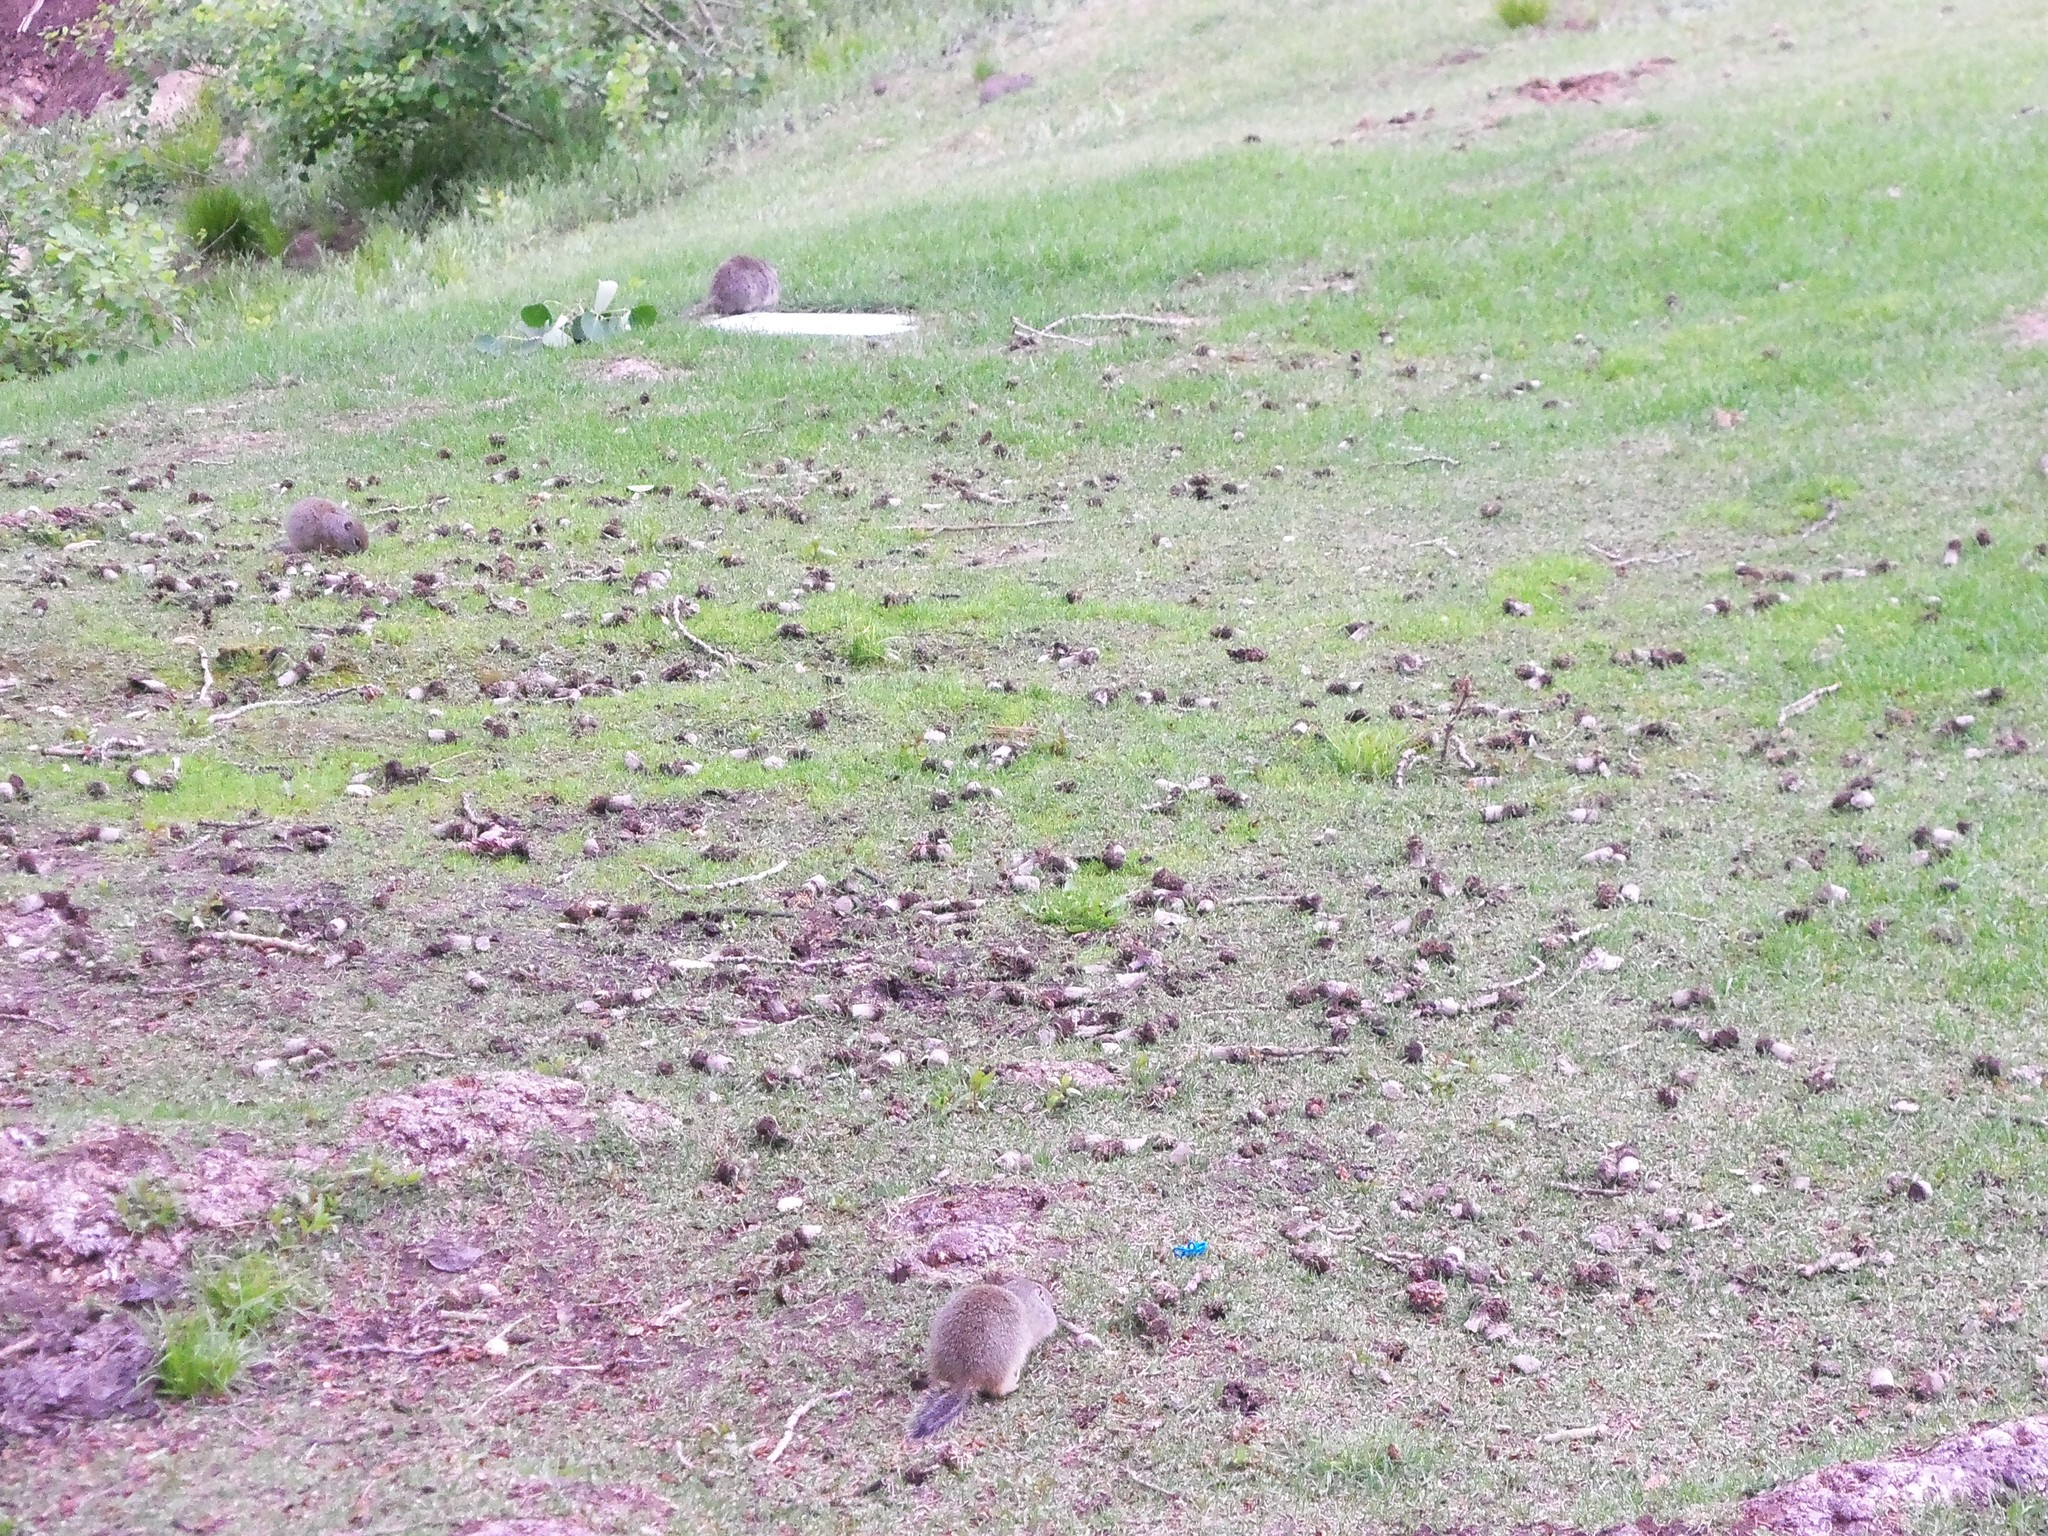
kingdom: Animalia
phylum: Chordata
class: Mammalia
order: Rodentia
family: Sciuridae
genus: Urocitellus
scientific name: Urocitellus armatus
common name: Uinta ground squirrel
